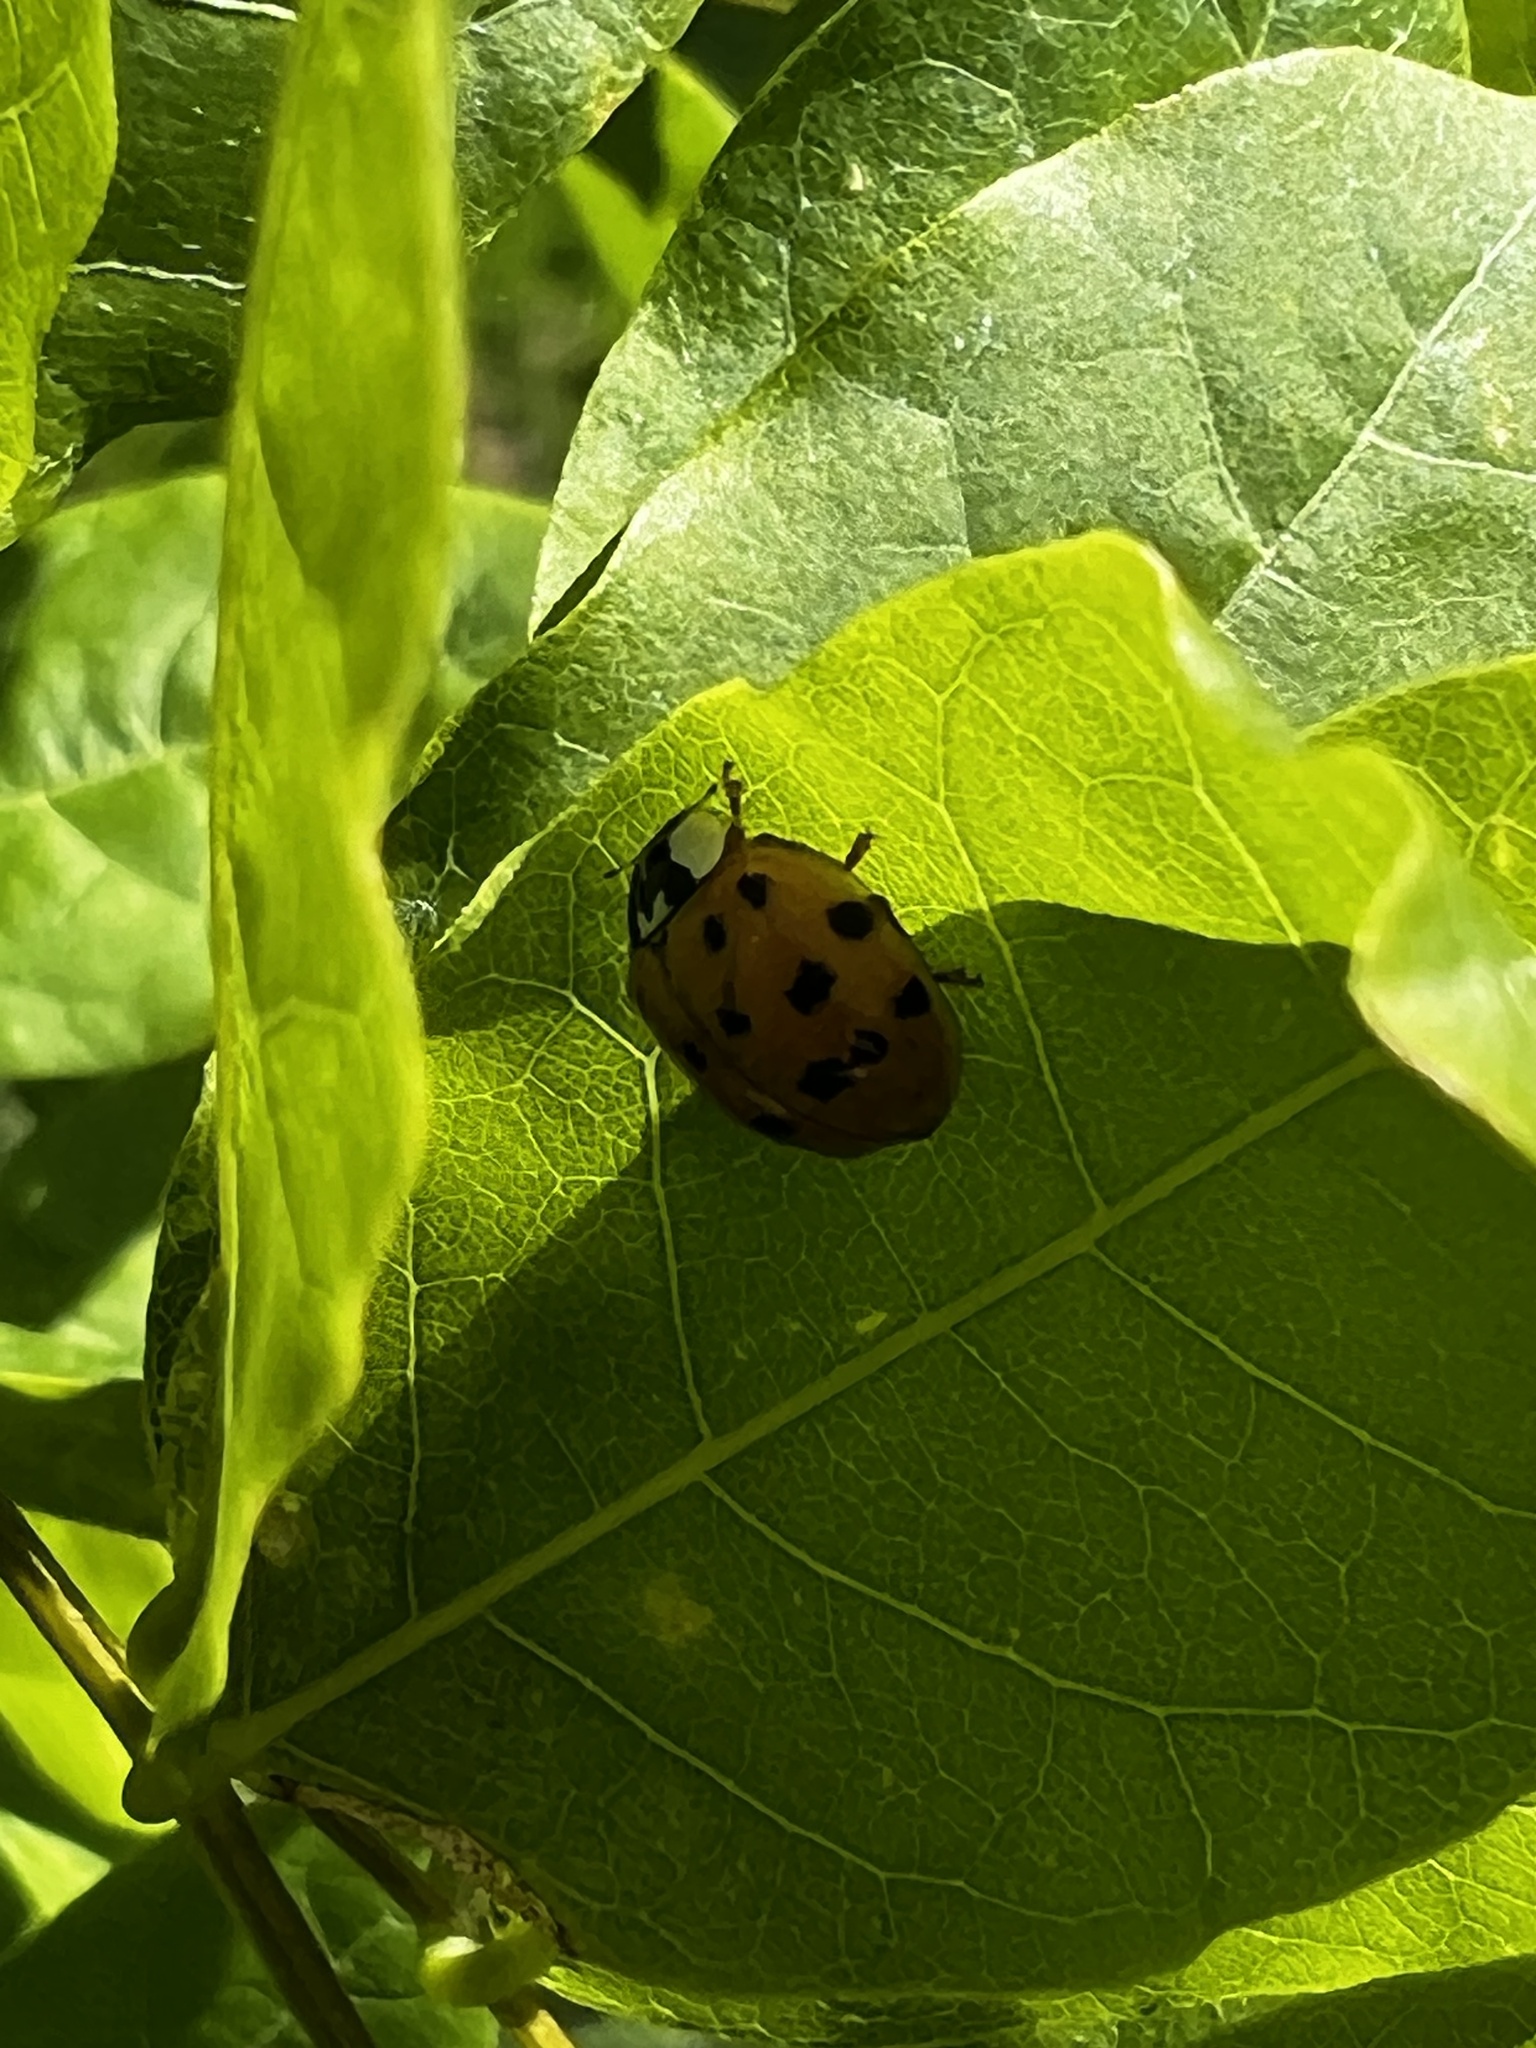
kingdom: Animalia
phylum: Arthropoda
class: Insecta
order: Coleoptera
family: Coccinellidae
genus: Harmonia
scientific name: Harmonia axyridis
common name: Harlequin ladybird
